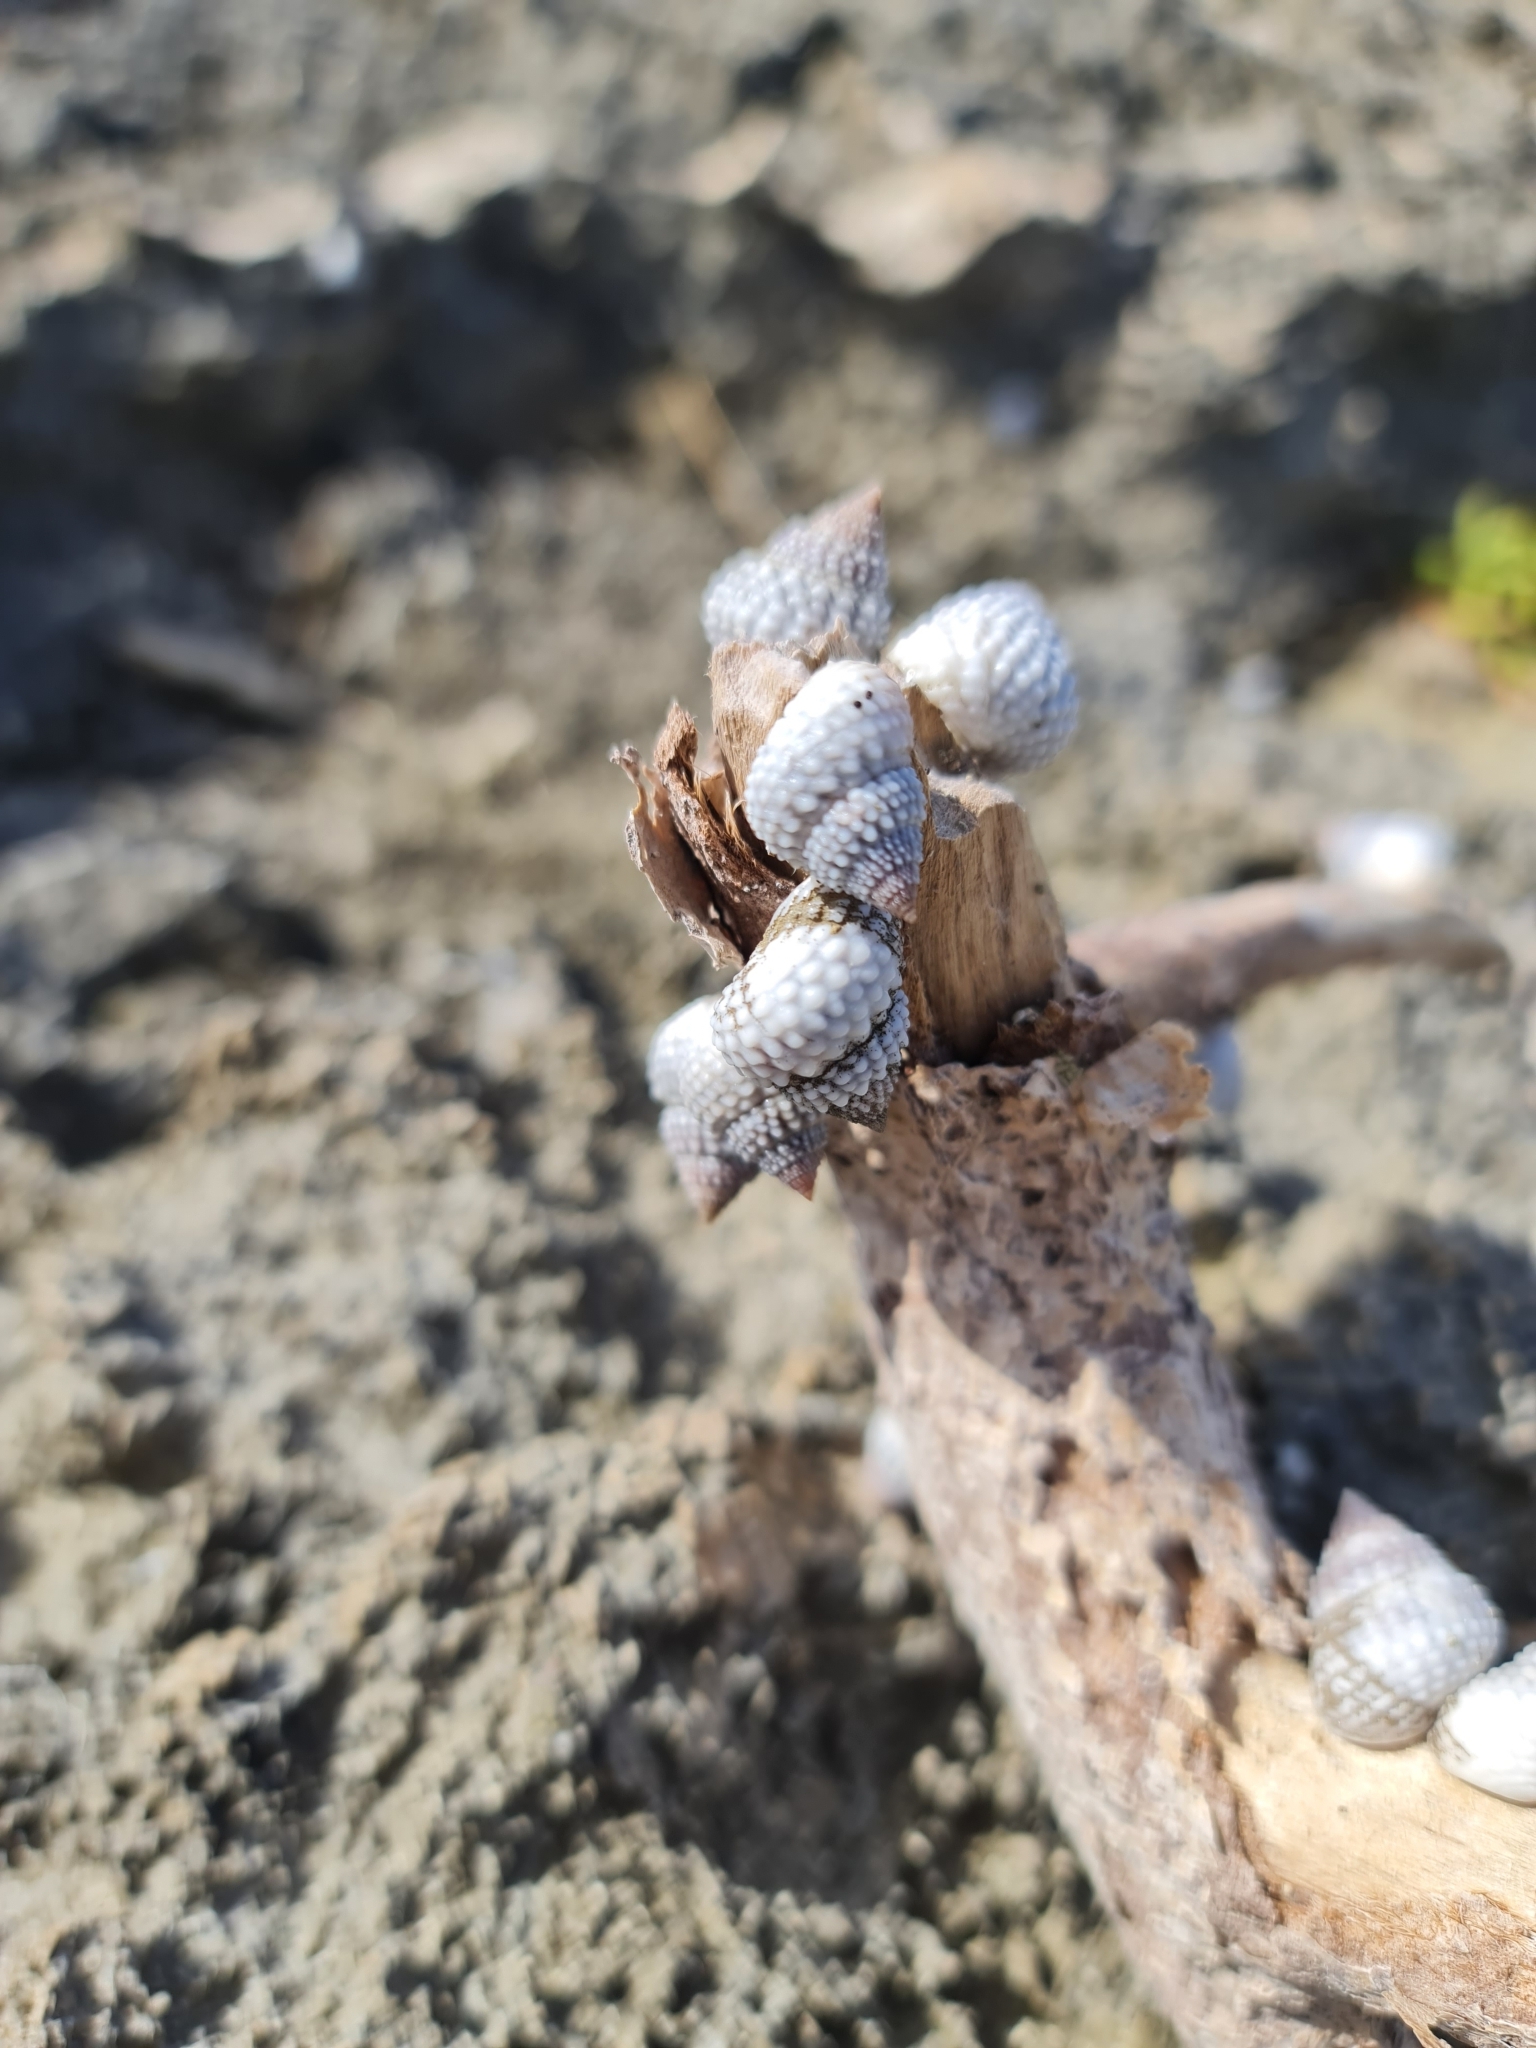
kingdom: Animalia
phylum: Mollusca
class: Gastropoda
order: Littorinimorpha
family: Littorinidae
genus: Cenchritis
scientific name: Cenchritis muricatus
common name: Beaded periwinkle
